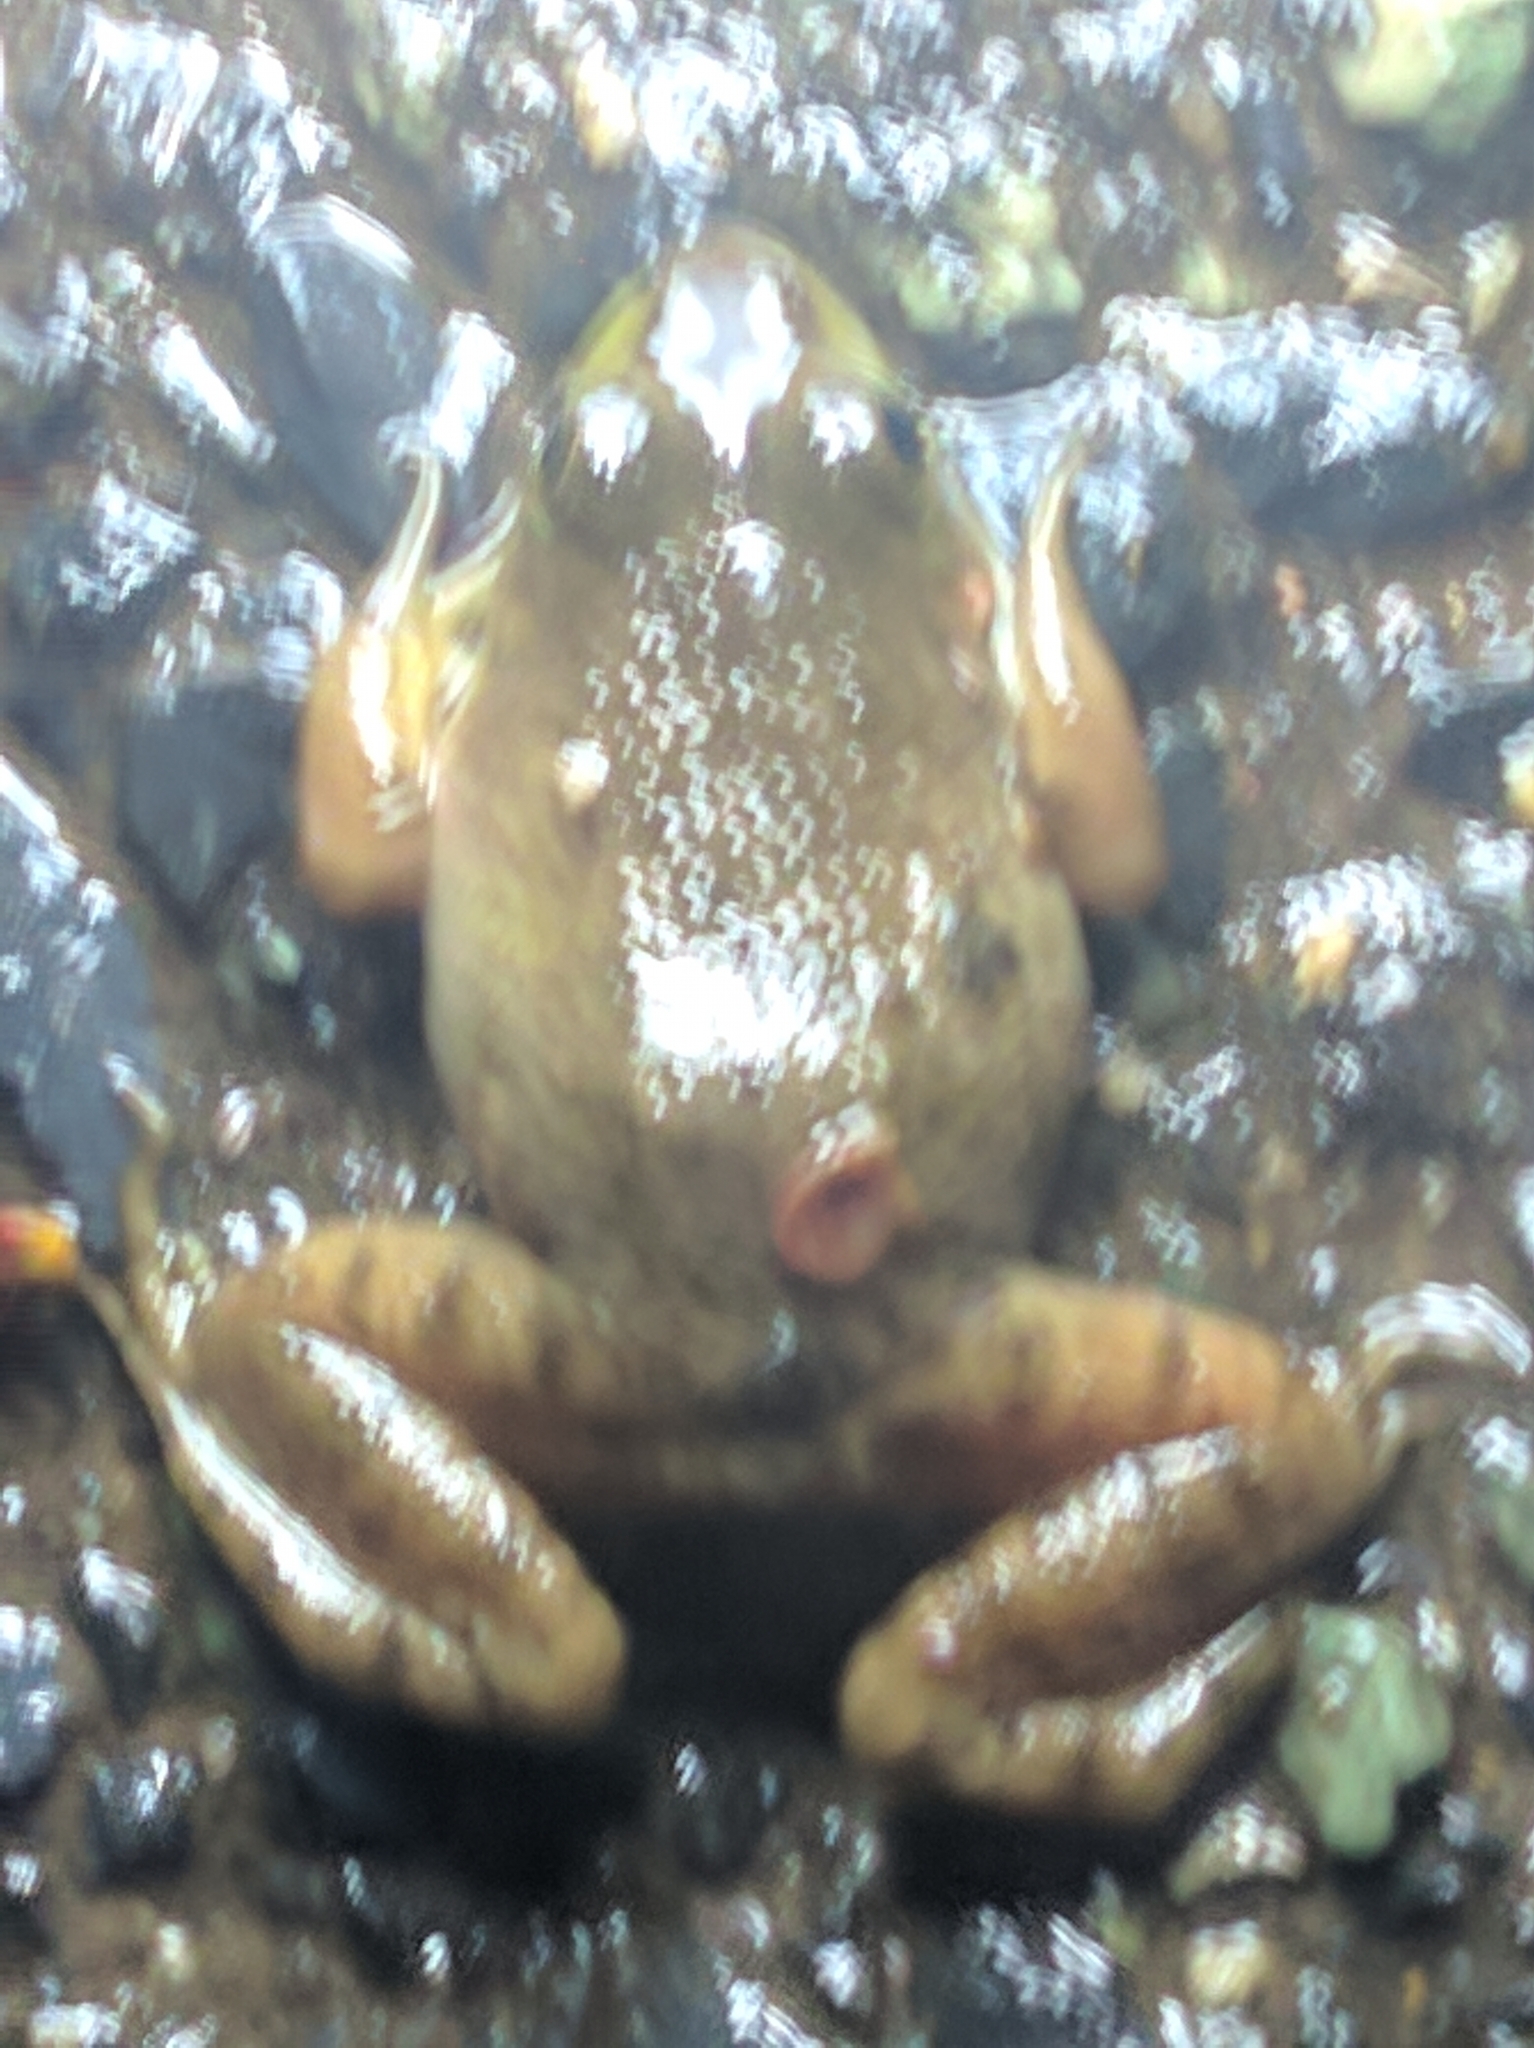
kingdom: Animalia
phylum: Chordata
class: Amphibia
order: Anura
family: Ranidae
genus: Lithobates
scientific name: Lithobates catesbeianus
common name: American bullfrog
